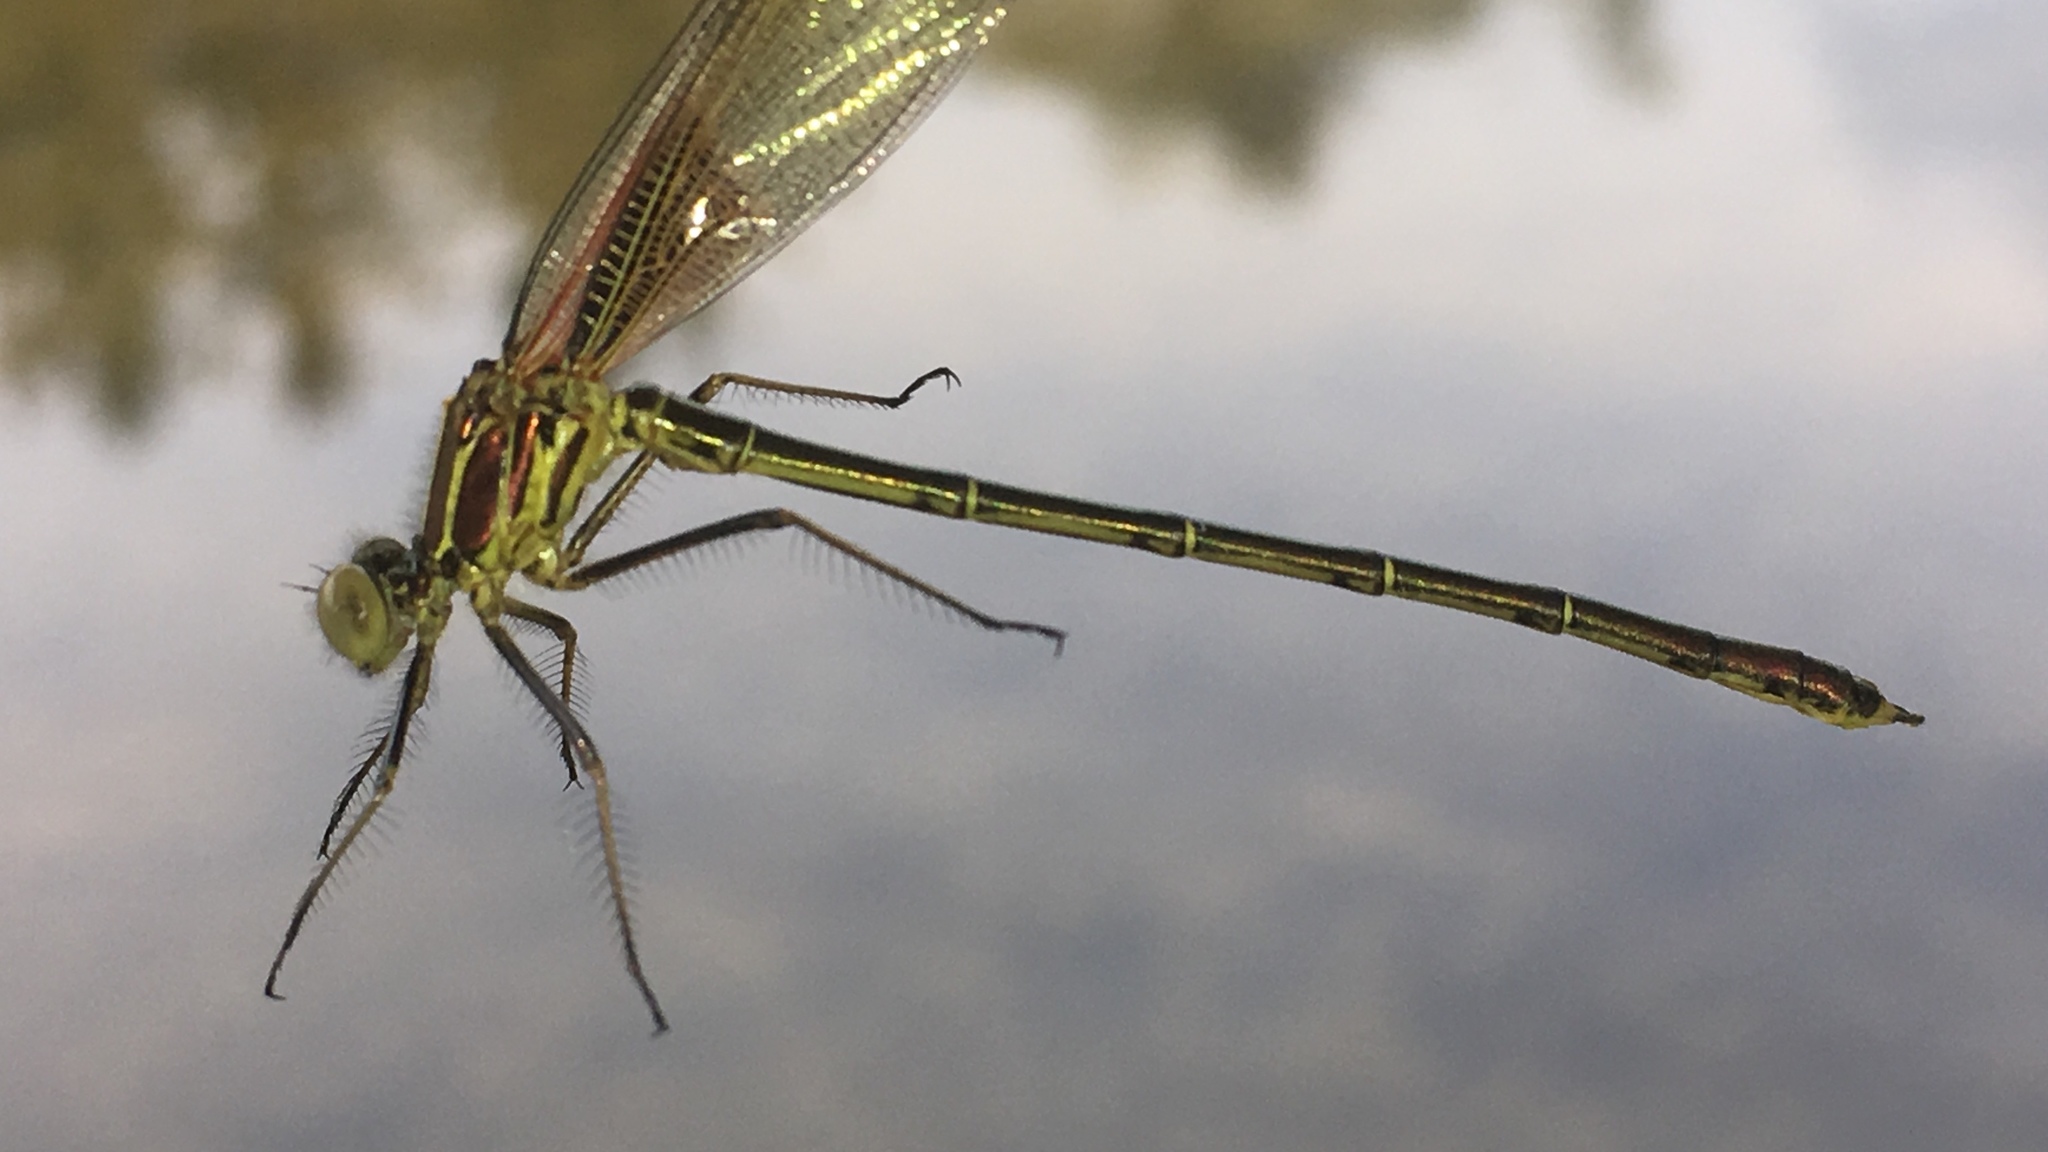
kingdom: Animalia
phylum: Arthropoda
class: Insecta
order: Odonata
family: Calopterygidae
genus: Hetaerina
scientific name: Hetaerina americana
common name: American rubyspot
